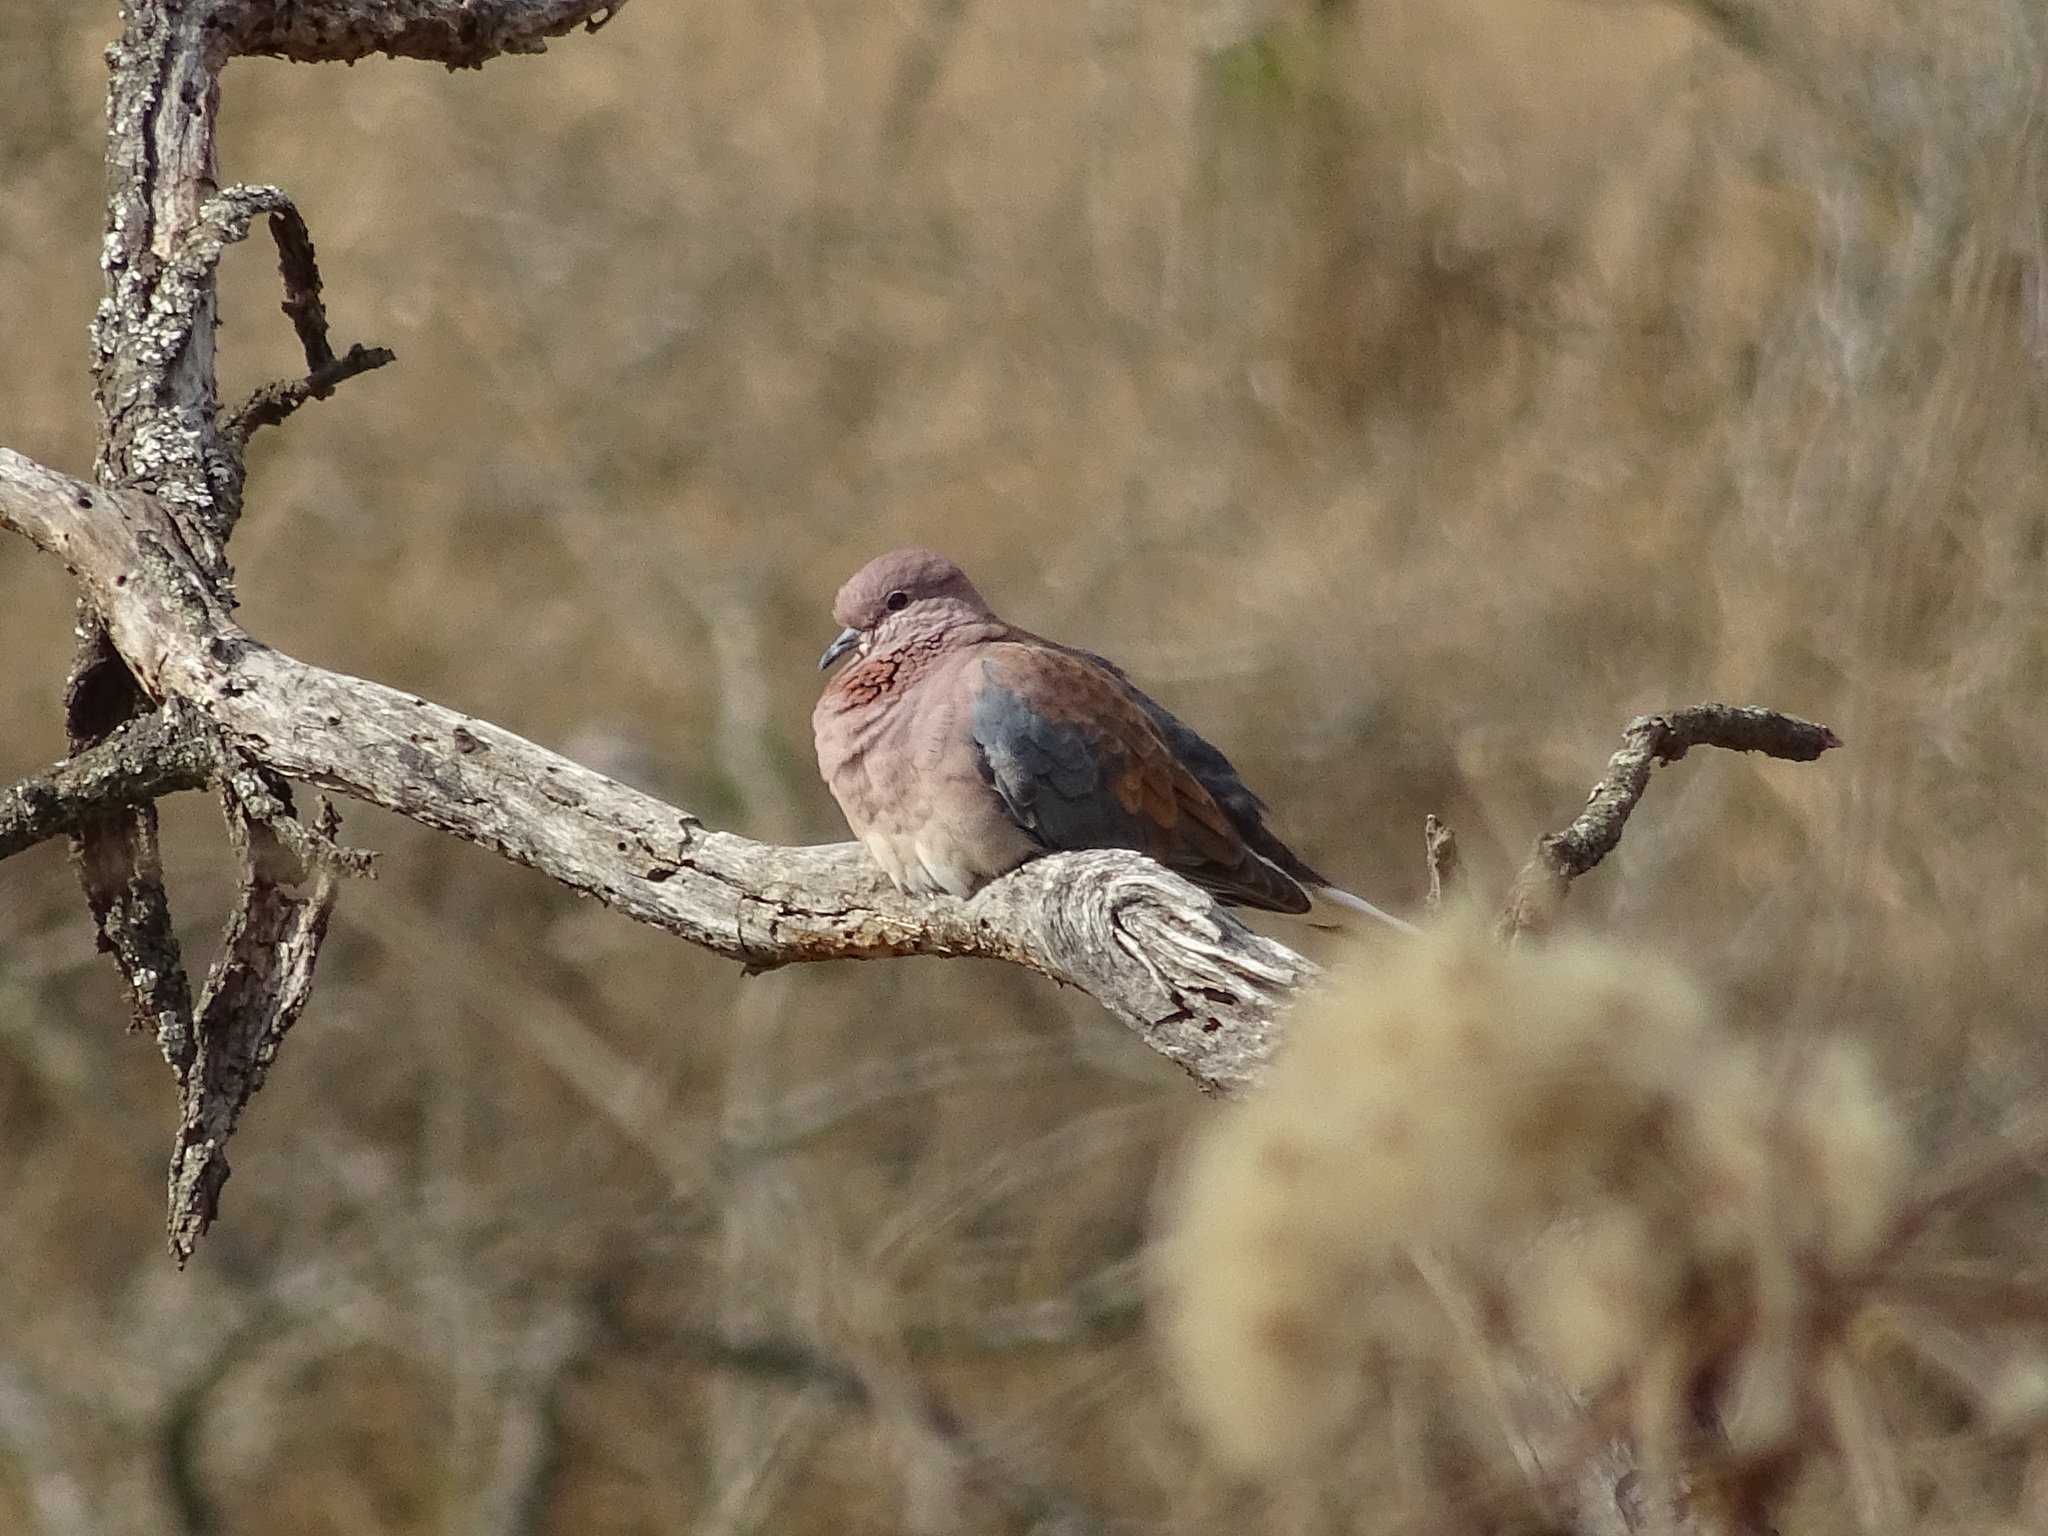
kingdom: Animalia
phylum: Chordata
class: Aves
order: Columbiformes
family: Columbidae
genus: Spilopelia
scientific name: Spilopelia senegalensis
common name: Laughing dove
